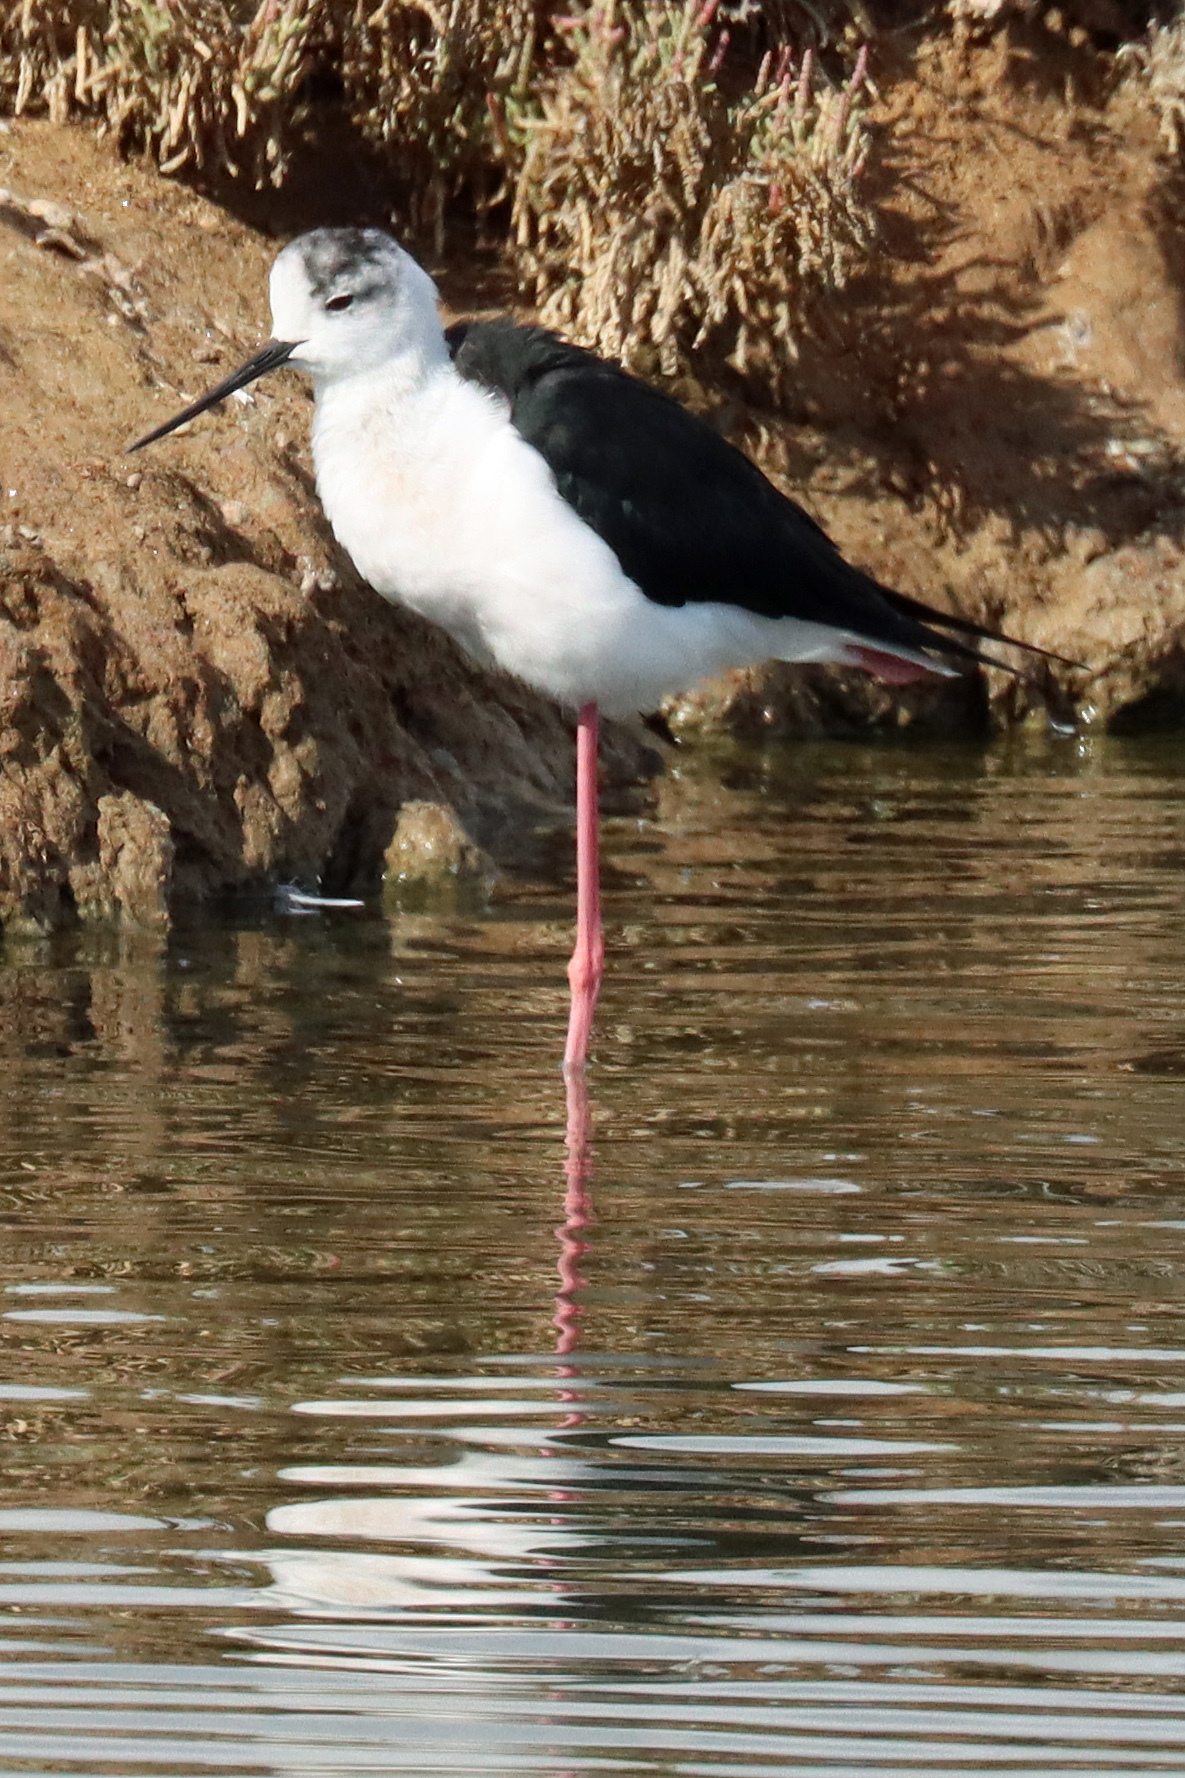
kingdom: Animalia
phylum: Chordata
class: Aves
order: Charadriiformes
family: Recurvirostridae
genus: Himantopus
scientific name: Himantopus himantopus
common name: Black-winged stilt
